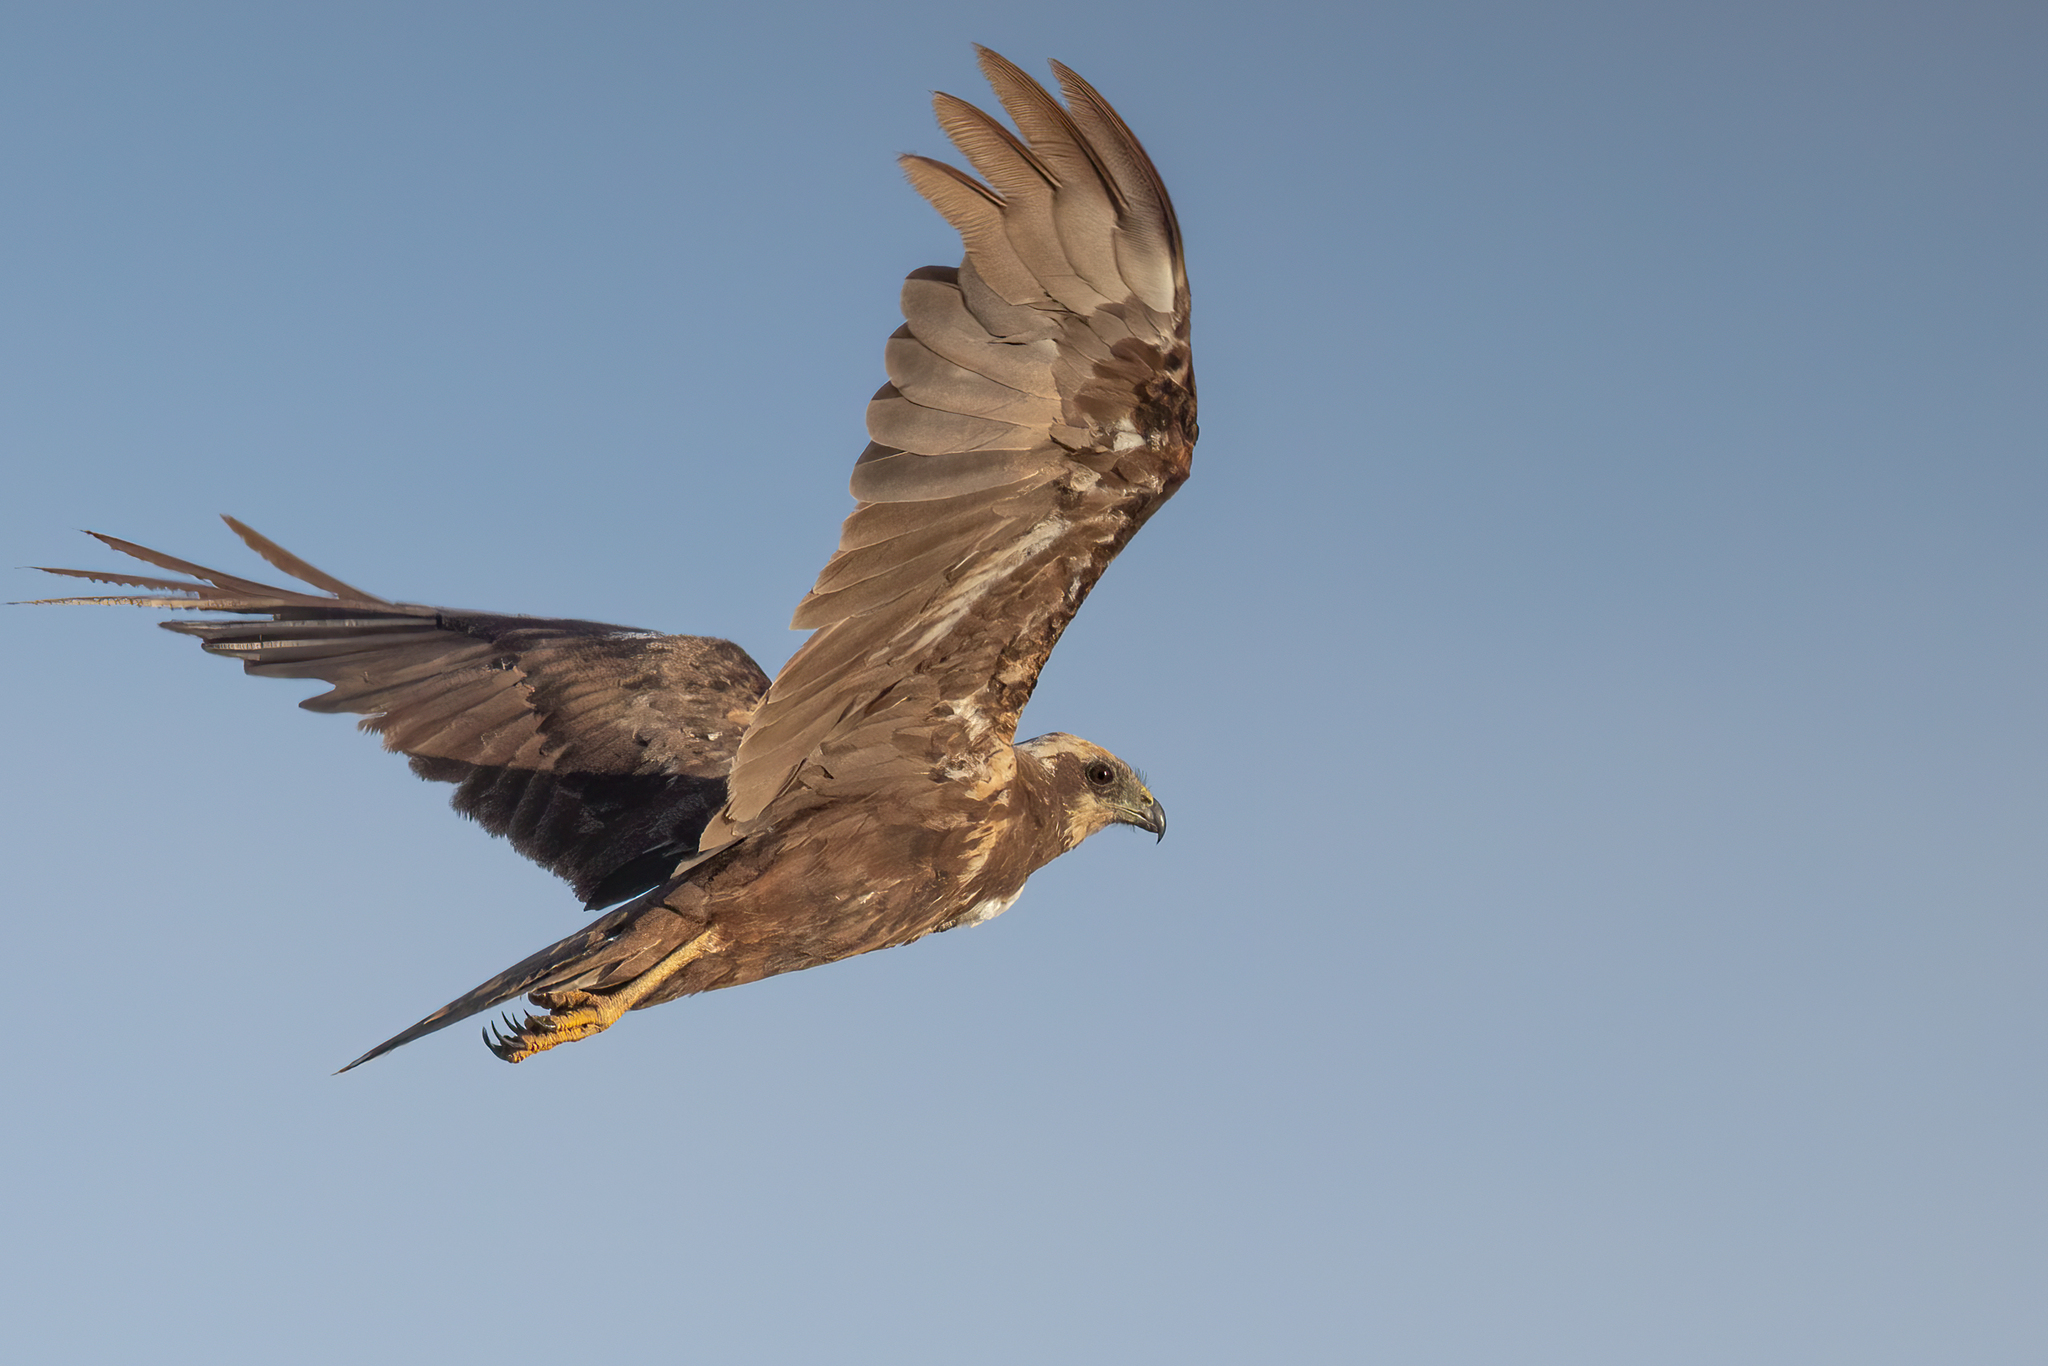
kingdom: Animalia
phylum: Chordata
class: Aves
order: Accipitriformes
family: Accipitridae
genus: Circus
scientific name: Circus aeruginosus
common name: Western marsh harrier
